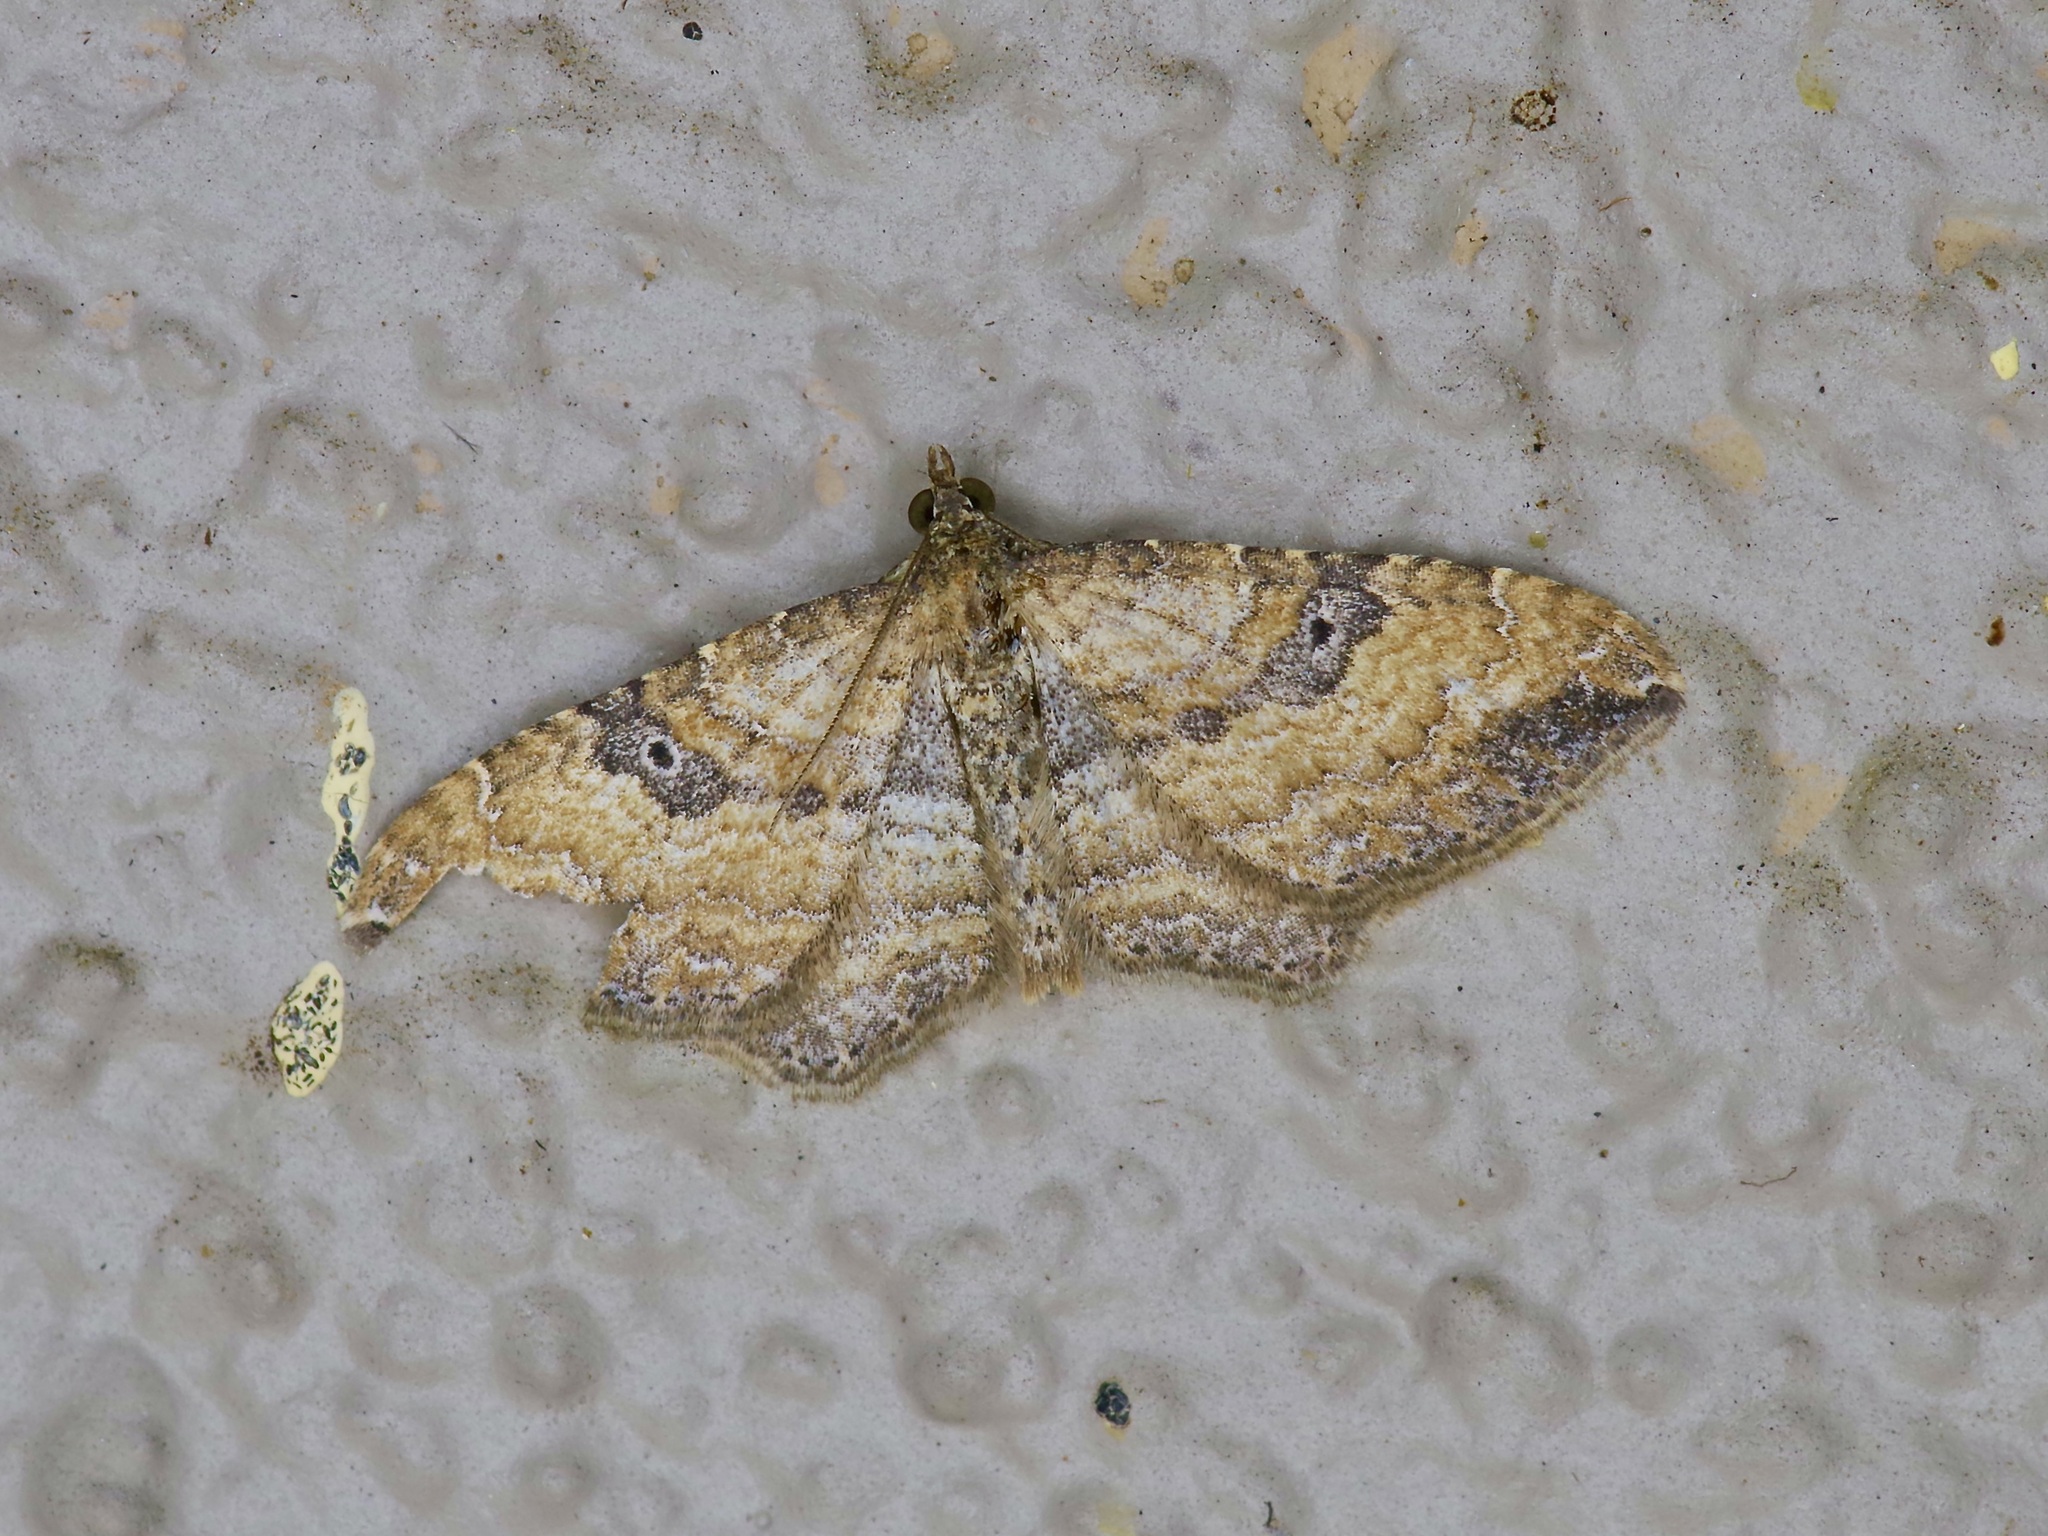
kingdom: Animalia
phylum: Arthropoda
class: Insecta
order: Lepidoptera
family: Geometridae
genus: Orthonama
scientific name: Orthonama obstipata
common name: The gem
